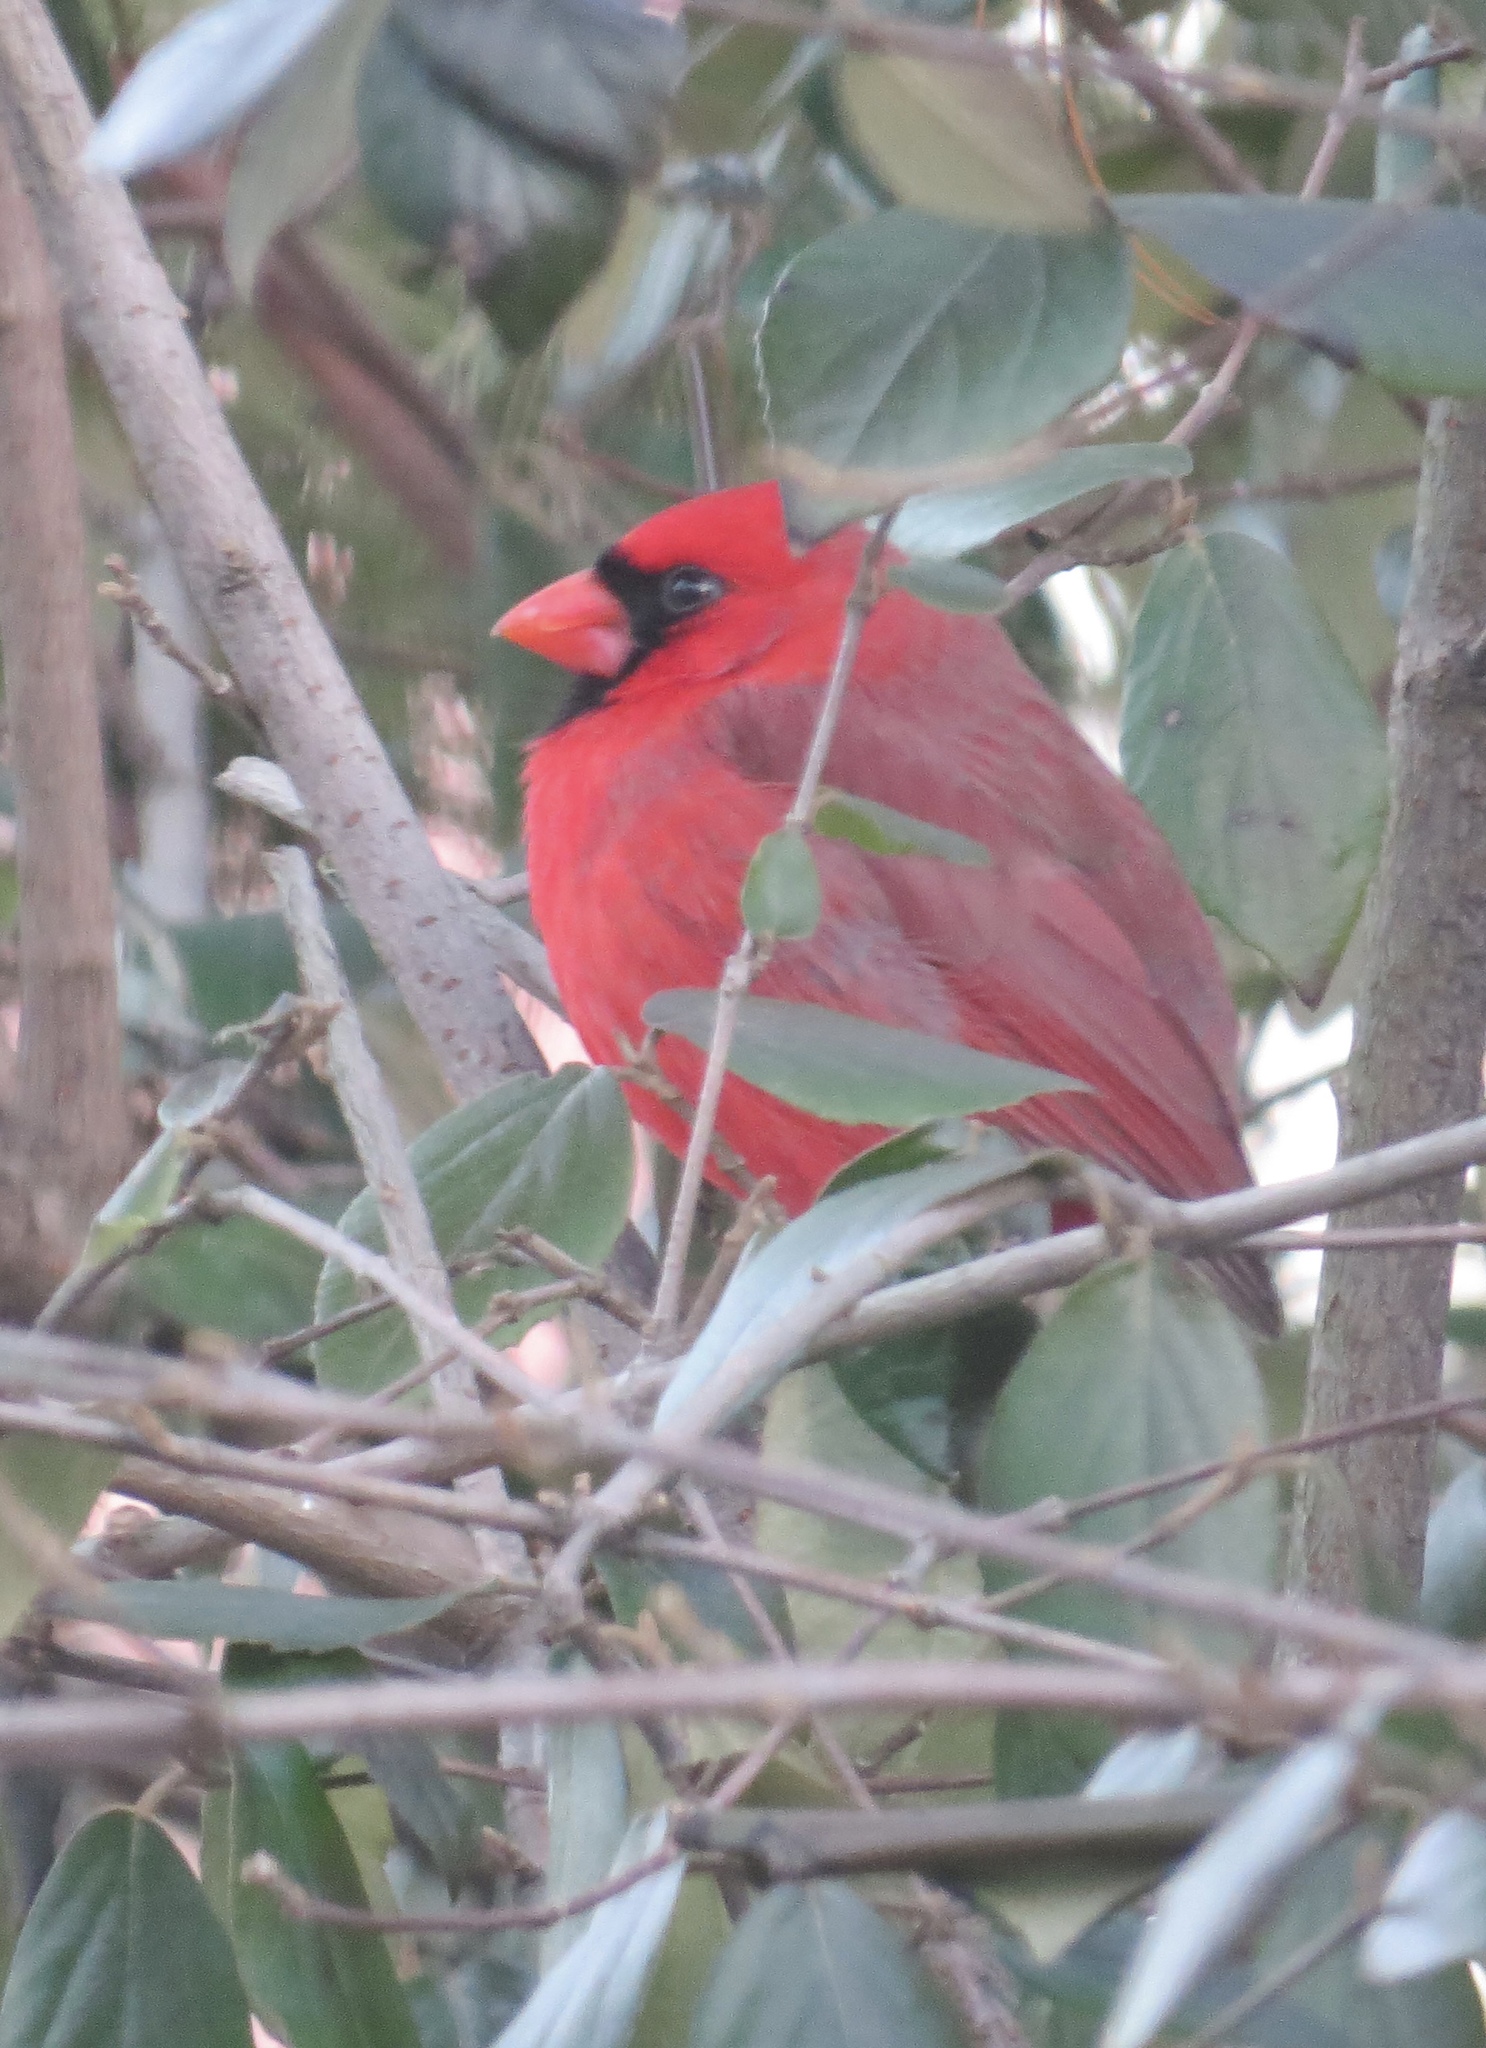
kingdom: Animalia
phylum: Chordata
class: Aves
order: Passeriformes
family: Cardinalidae
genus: Cardinalis
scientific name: Cardinalis cardinalis
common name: Northern cardinal
